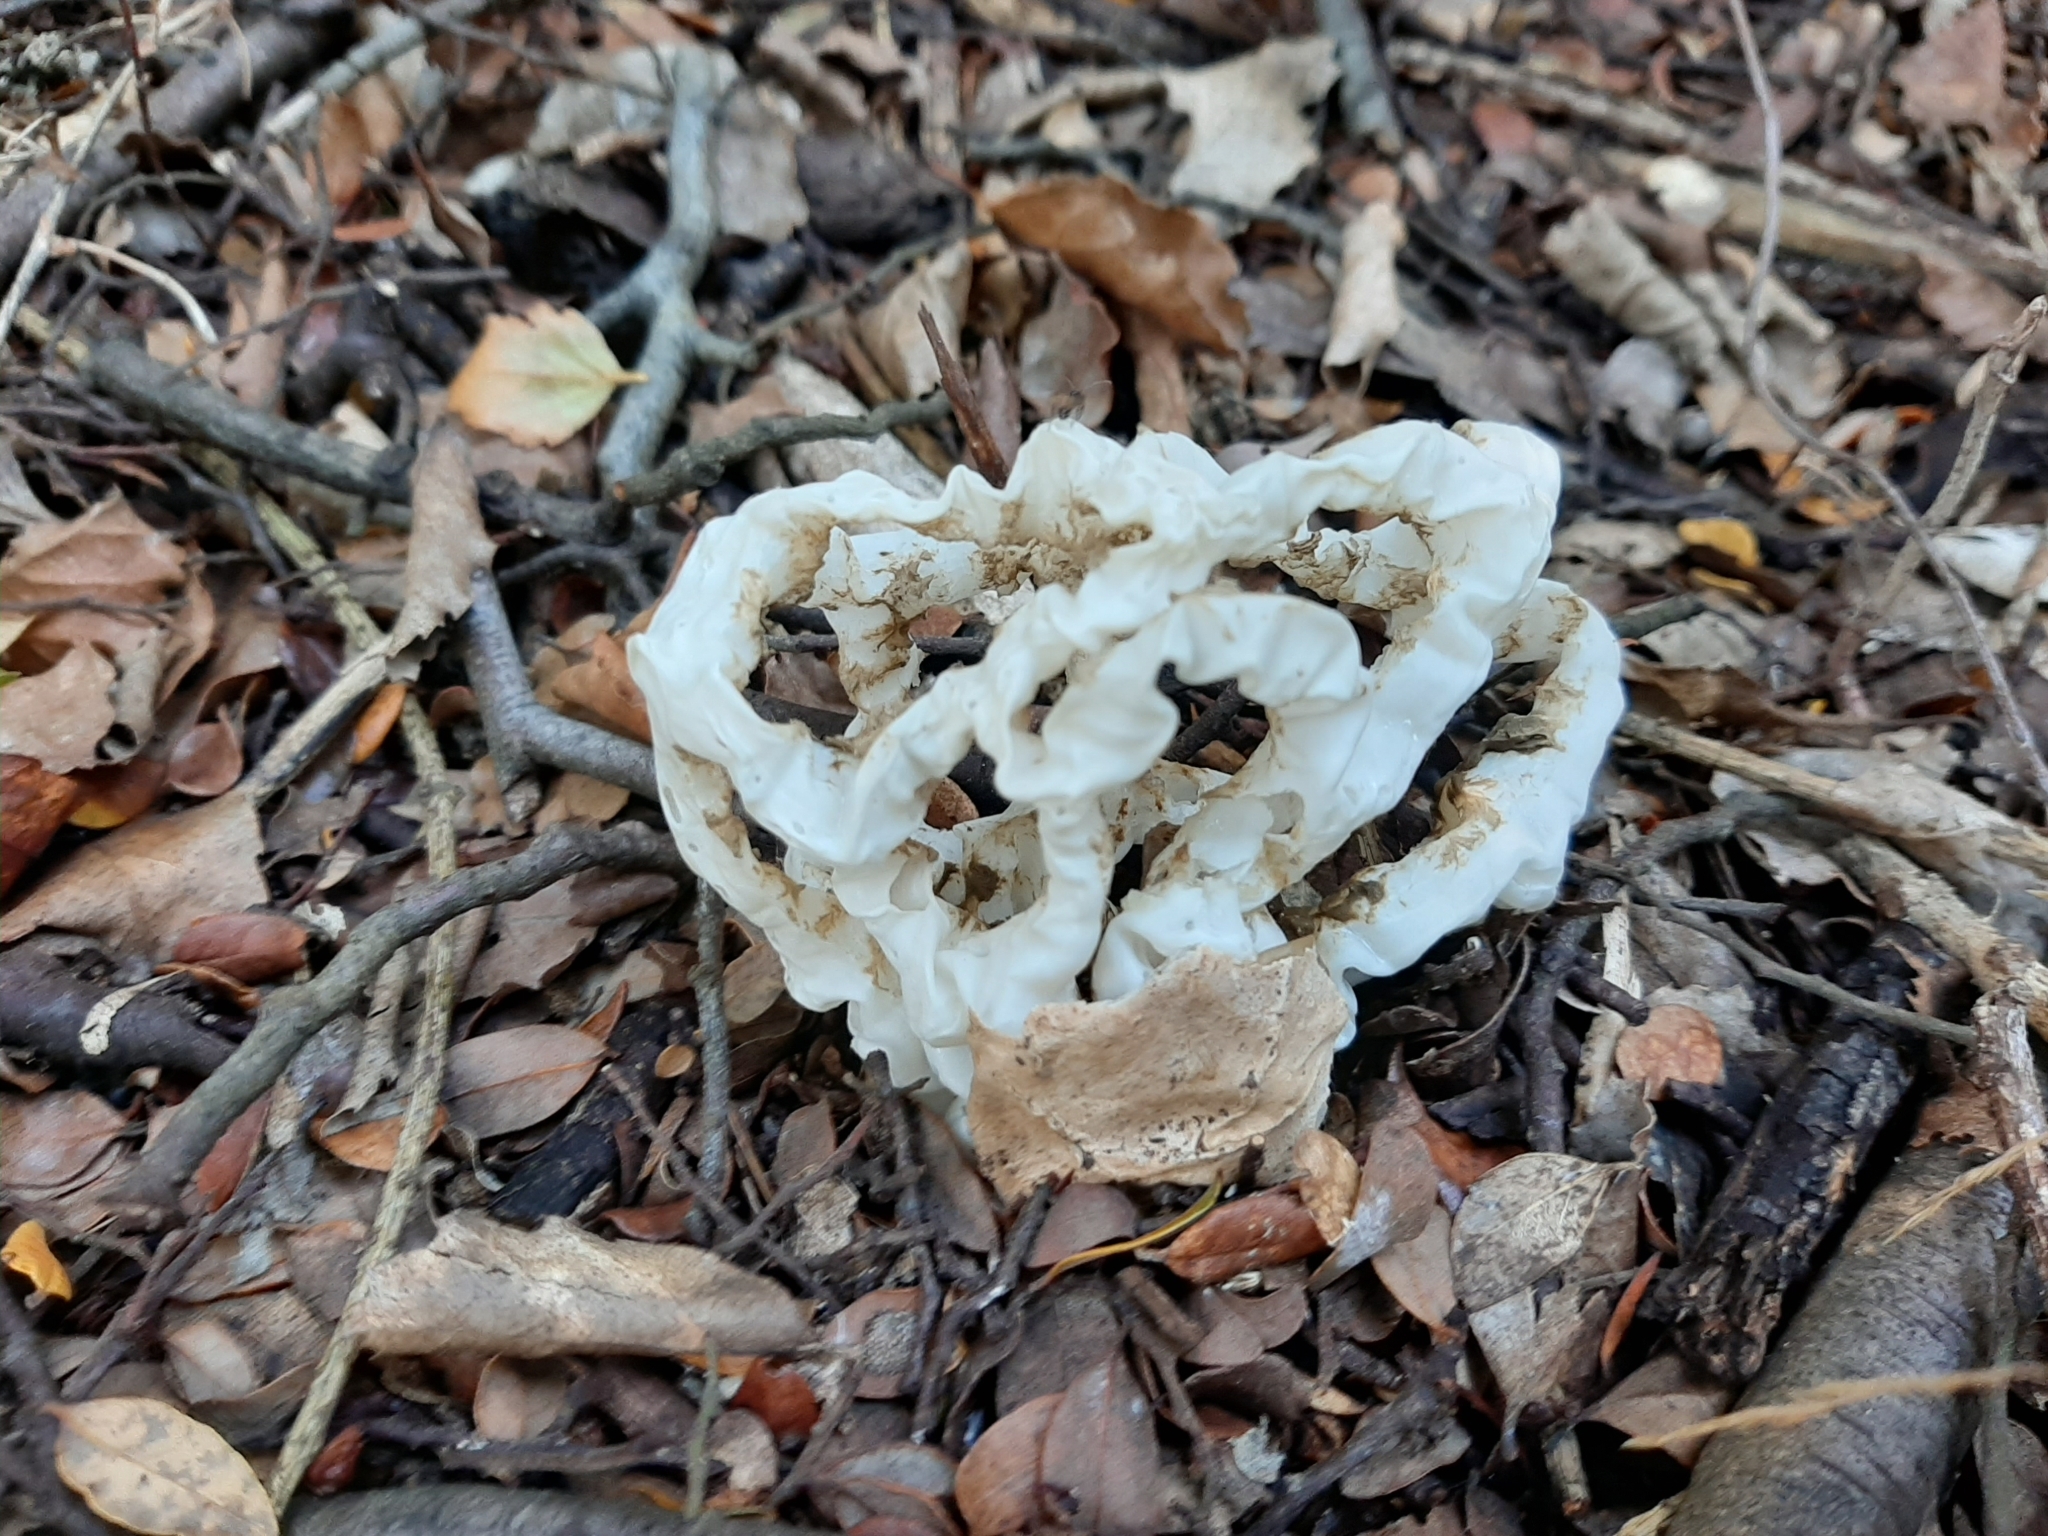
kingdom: Fungi
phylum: Basidiomycota
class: Agaricomycetes
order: Phallales
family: Phallaceae
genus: Ileodictyon
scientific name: Ileodictyon cibarium
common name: Basket fungus
